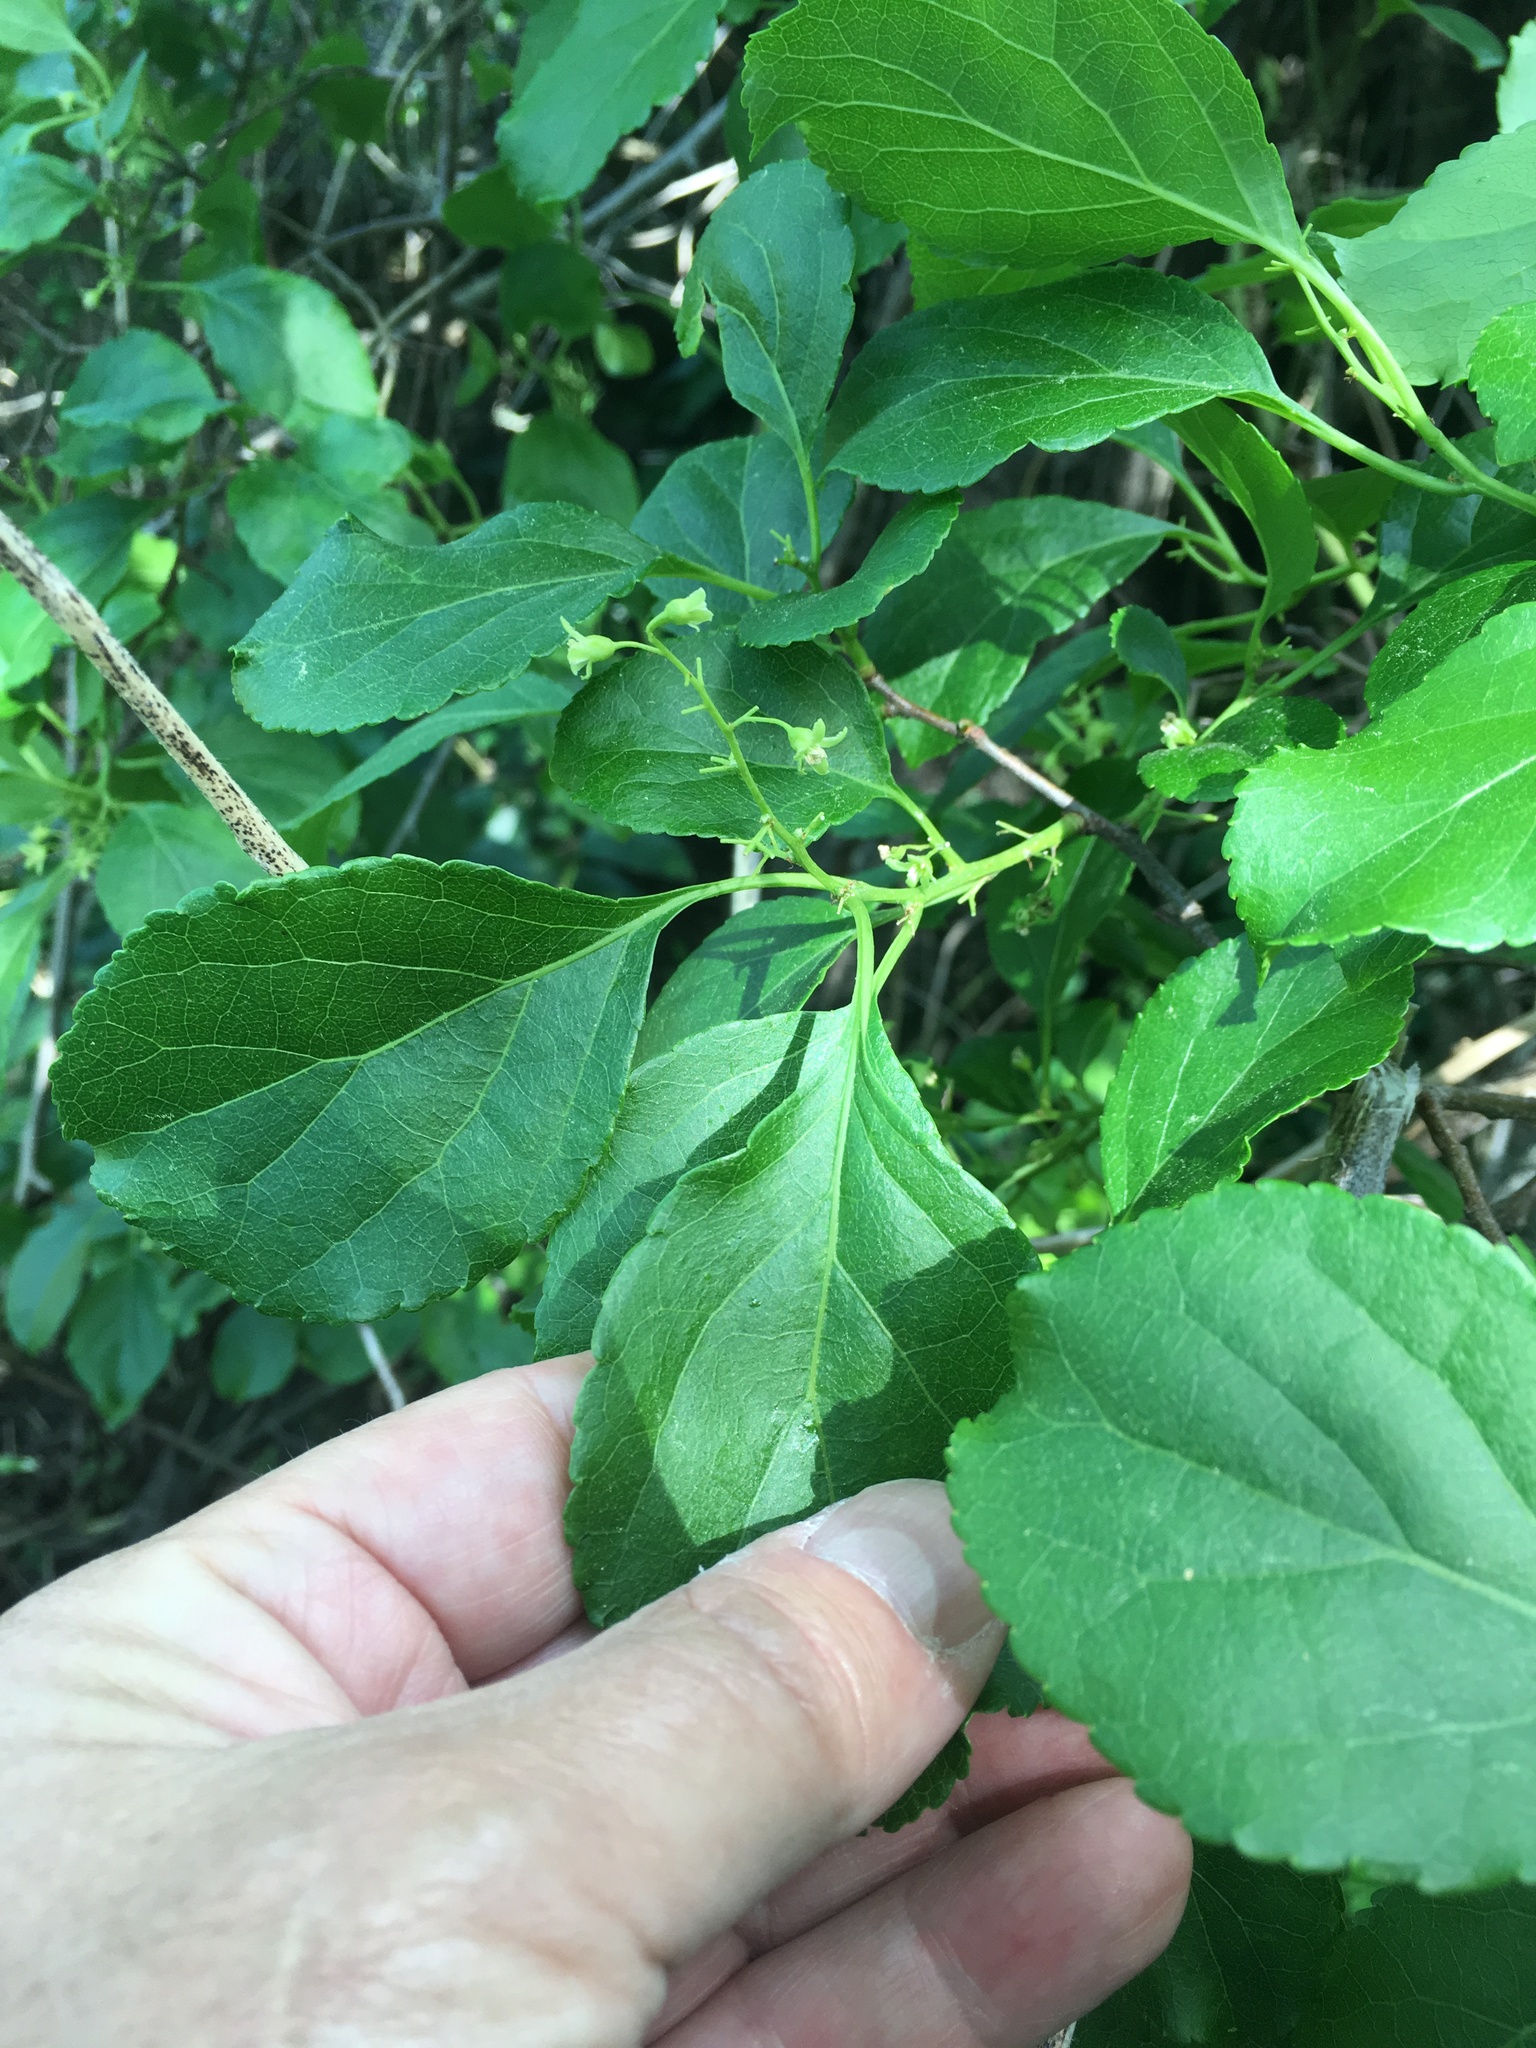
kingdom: Plantae
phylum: Tracheophyta
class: Magnoliopsida
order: Celastrales
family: Celastraceae
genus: Celastrus
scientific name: Celastrus orbiculatus
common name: Oriental bittersweet
